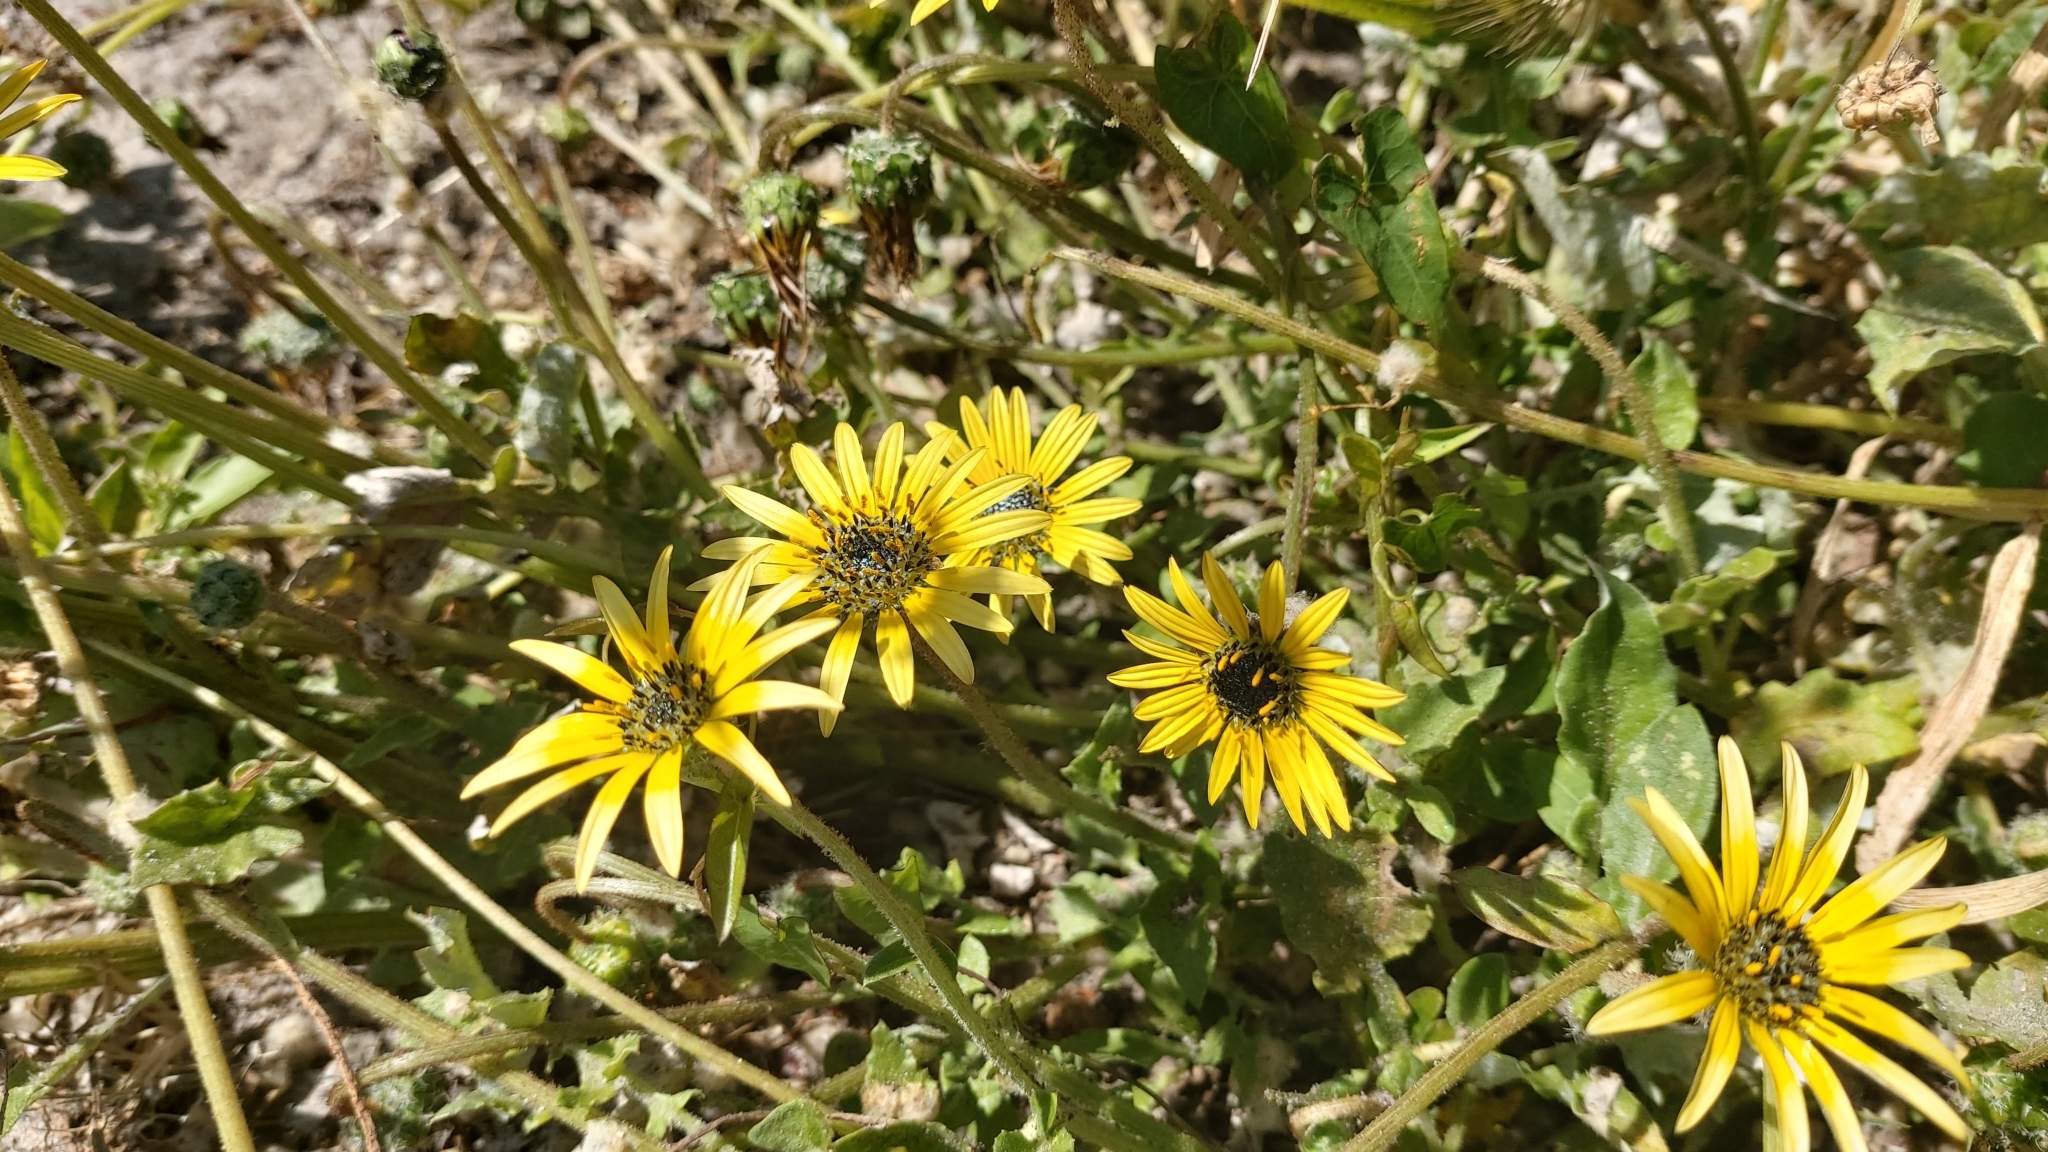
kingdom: Plantae
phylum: Tracheophyta
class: Magnoliopsida
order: Asterales
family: Asteraceae
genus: Arctotheca
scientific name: Arctotheca calendula
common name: Capeweed
